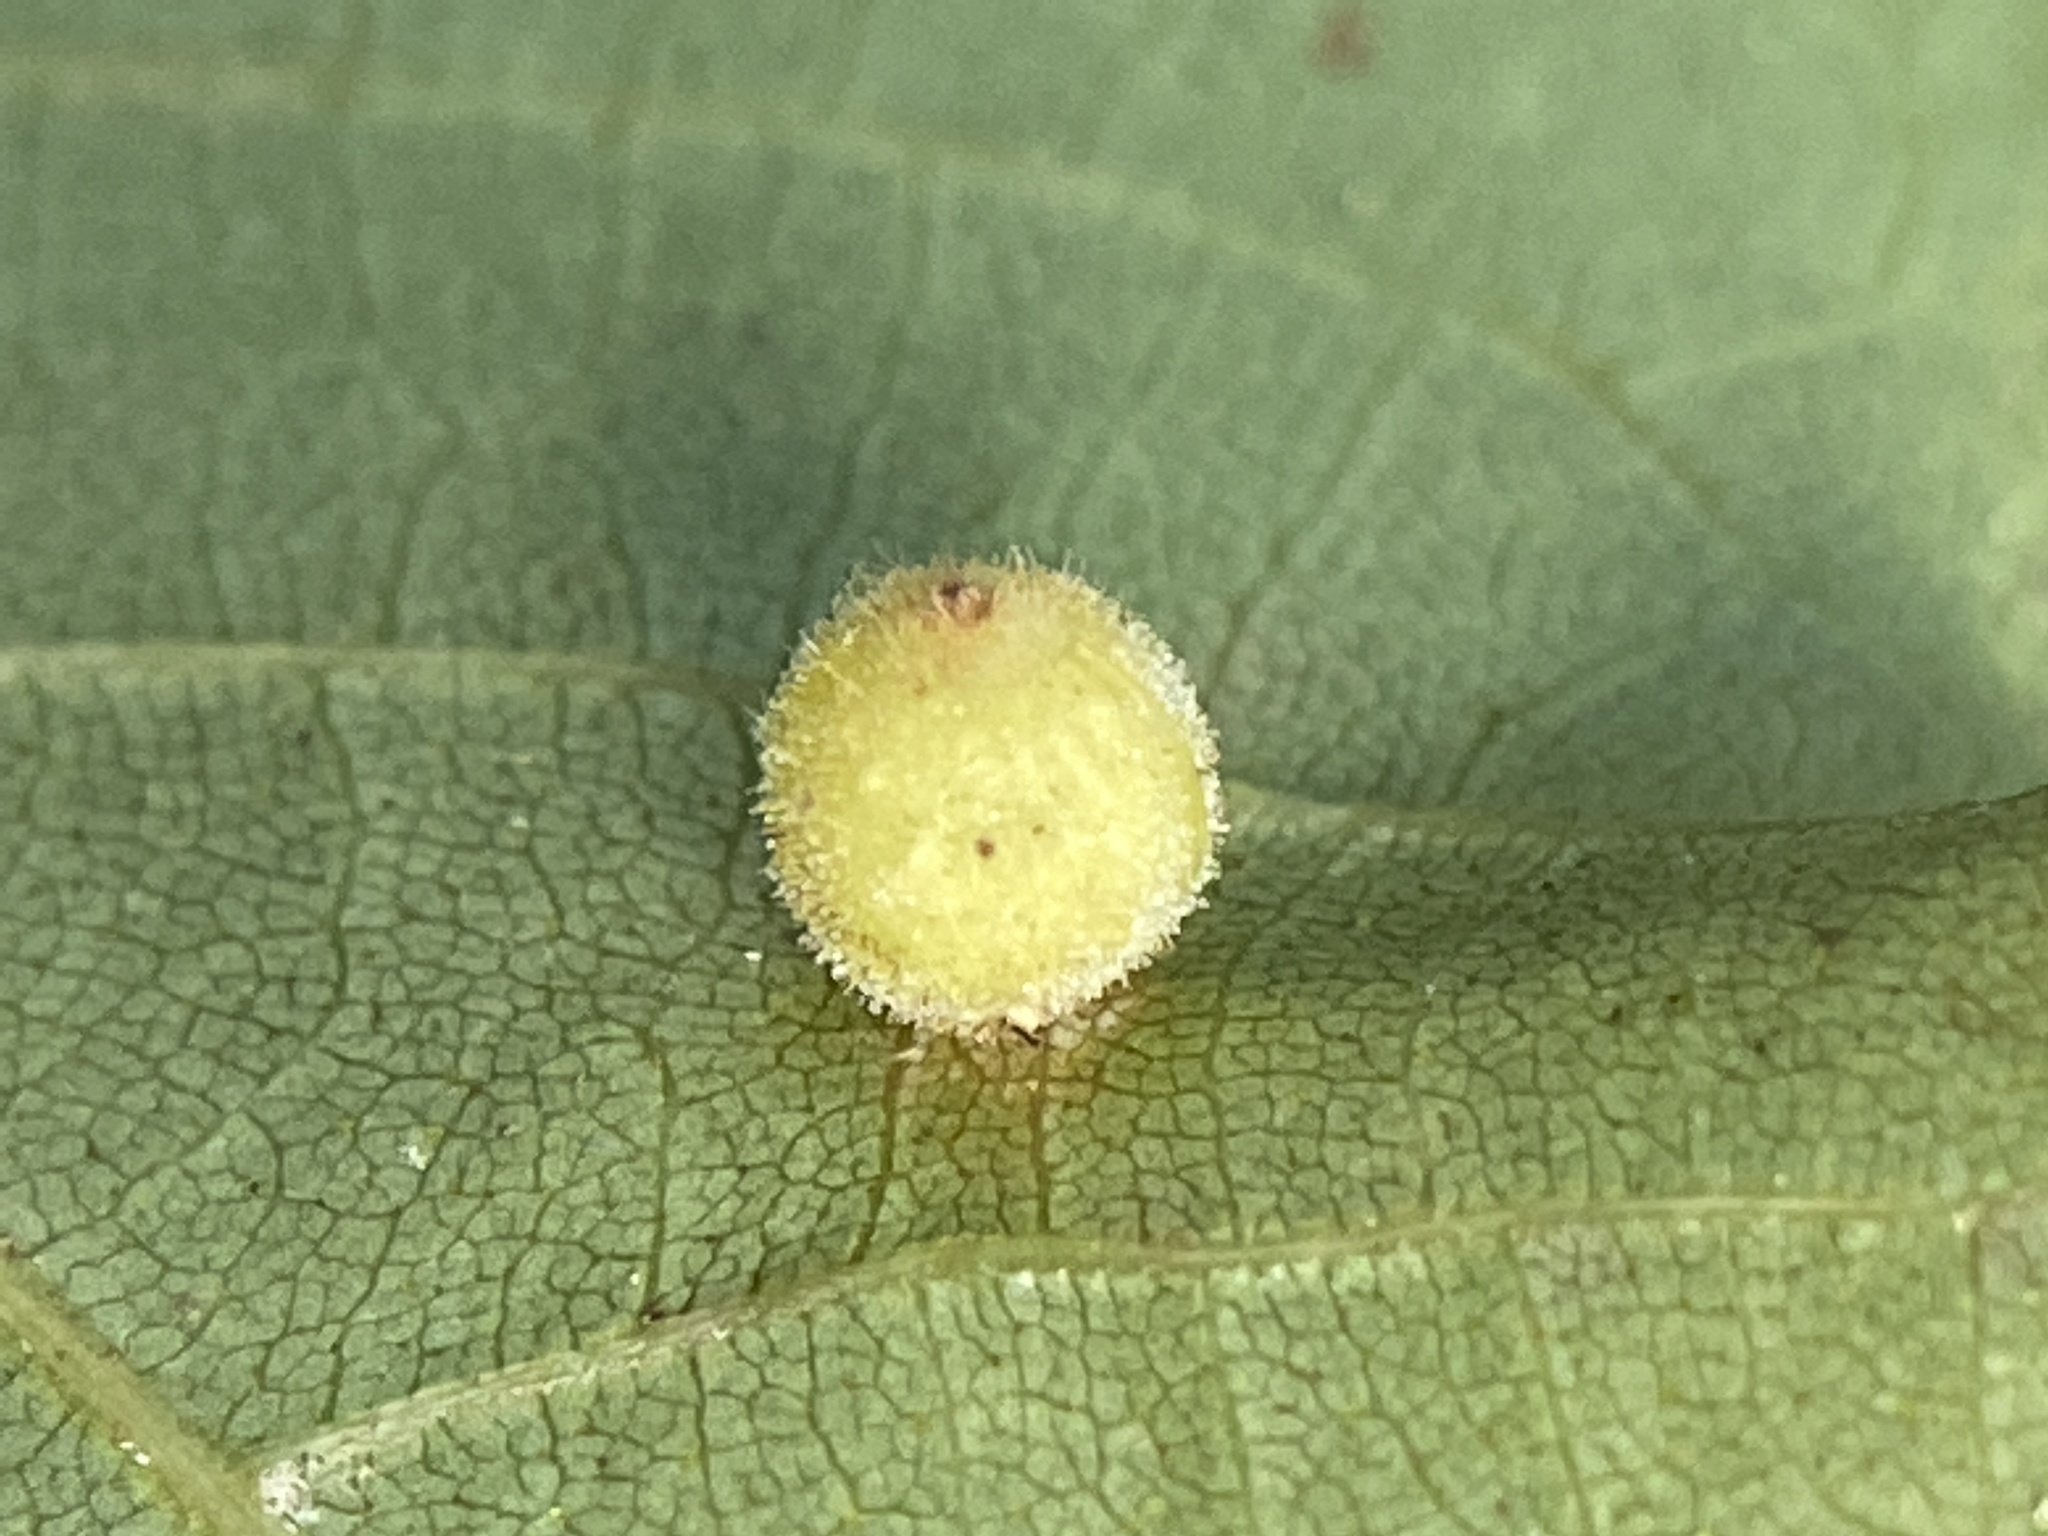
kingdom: Animalia
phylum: Arthropoda
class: Insecta
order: Diptera
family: Cecidomyiidae
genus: Caryomyia
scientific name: Caryomyia spiniglobus
